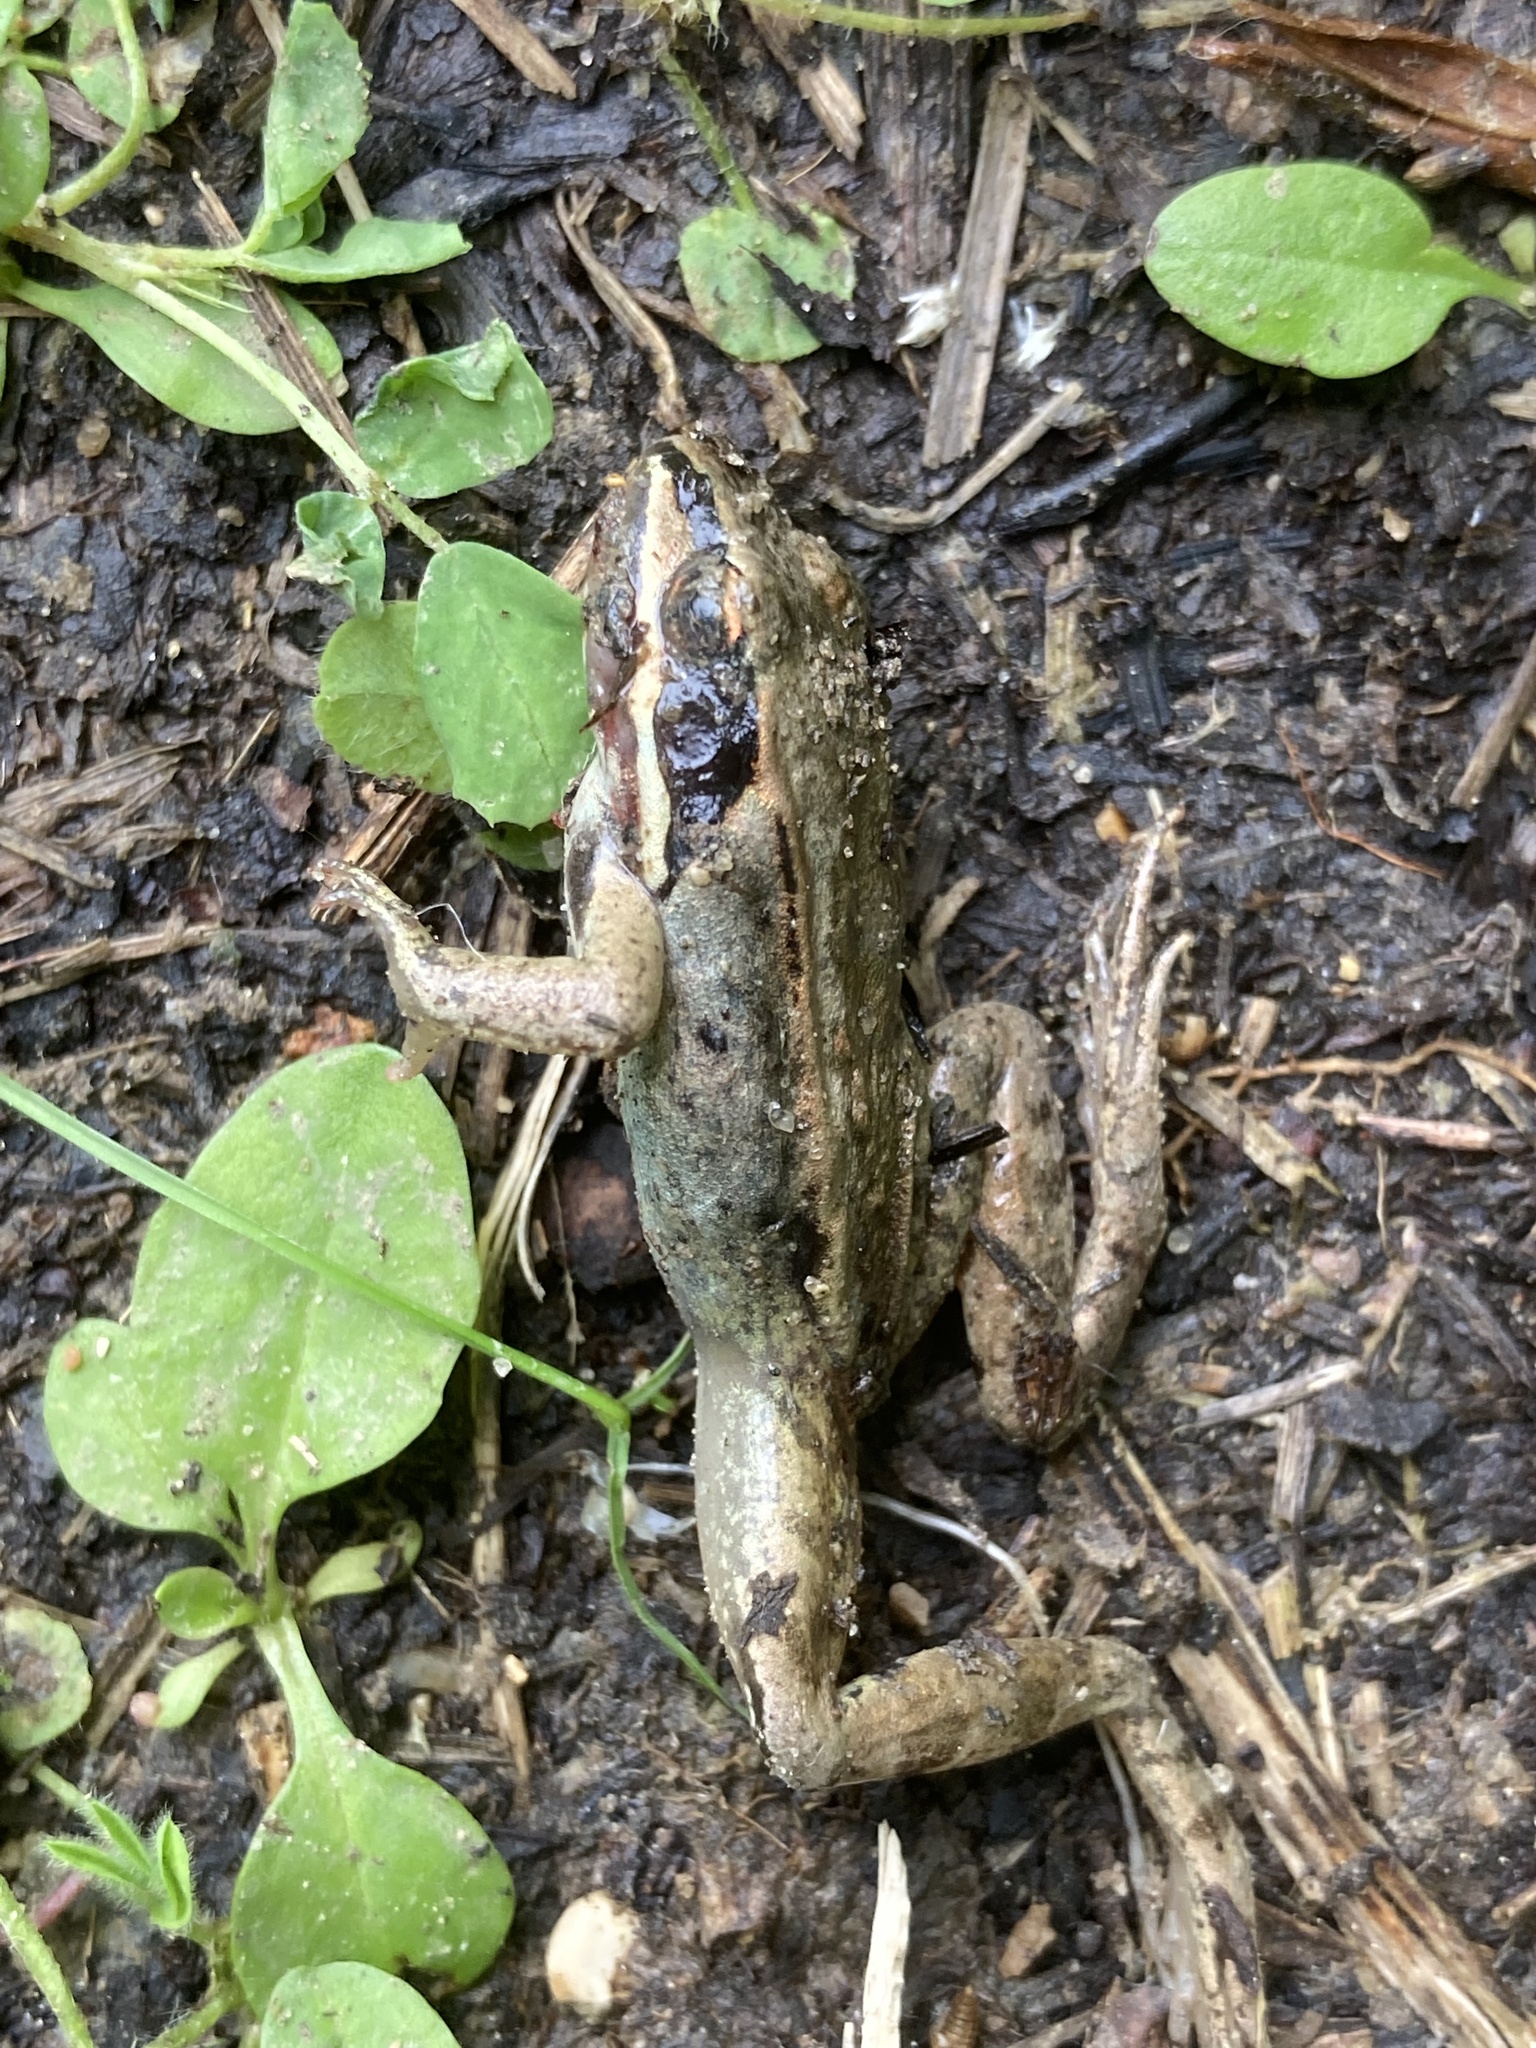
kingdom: Animalia
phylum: Chordata
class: Amphibia
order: Anura
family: Ranidae
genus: Lithobates
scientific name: Lithobates sylvaticus
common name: Wood frog
